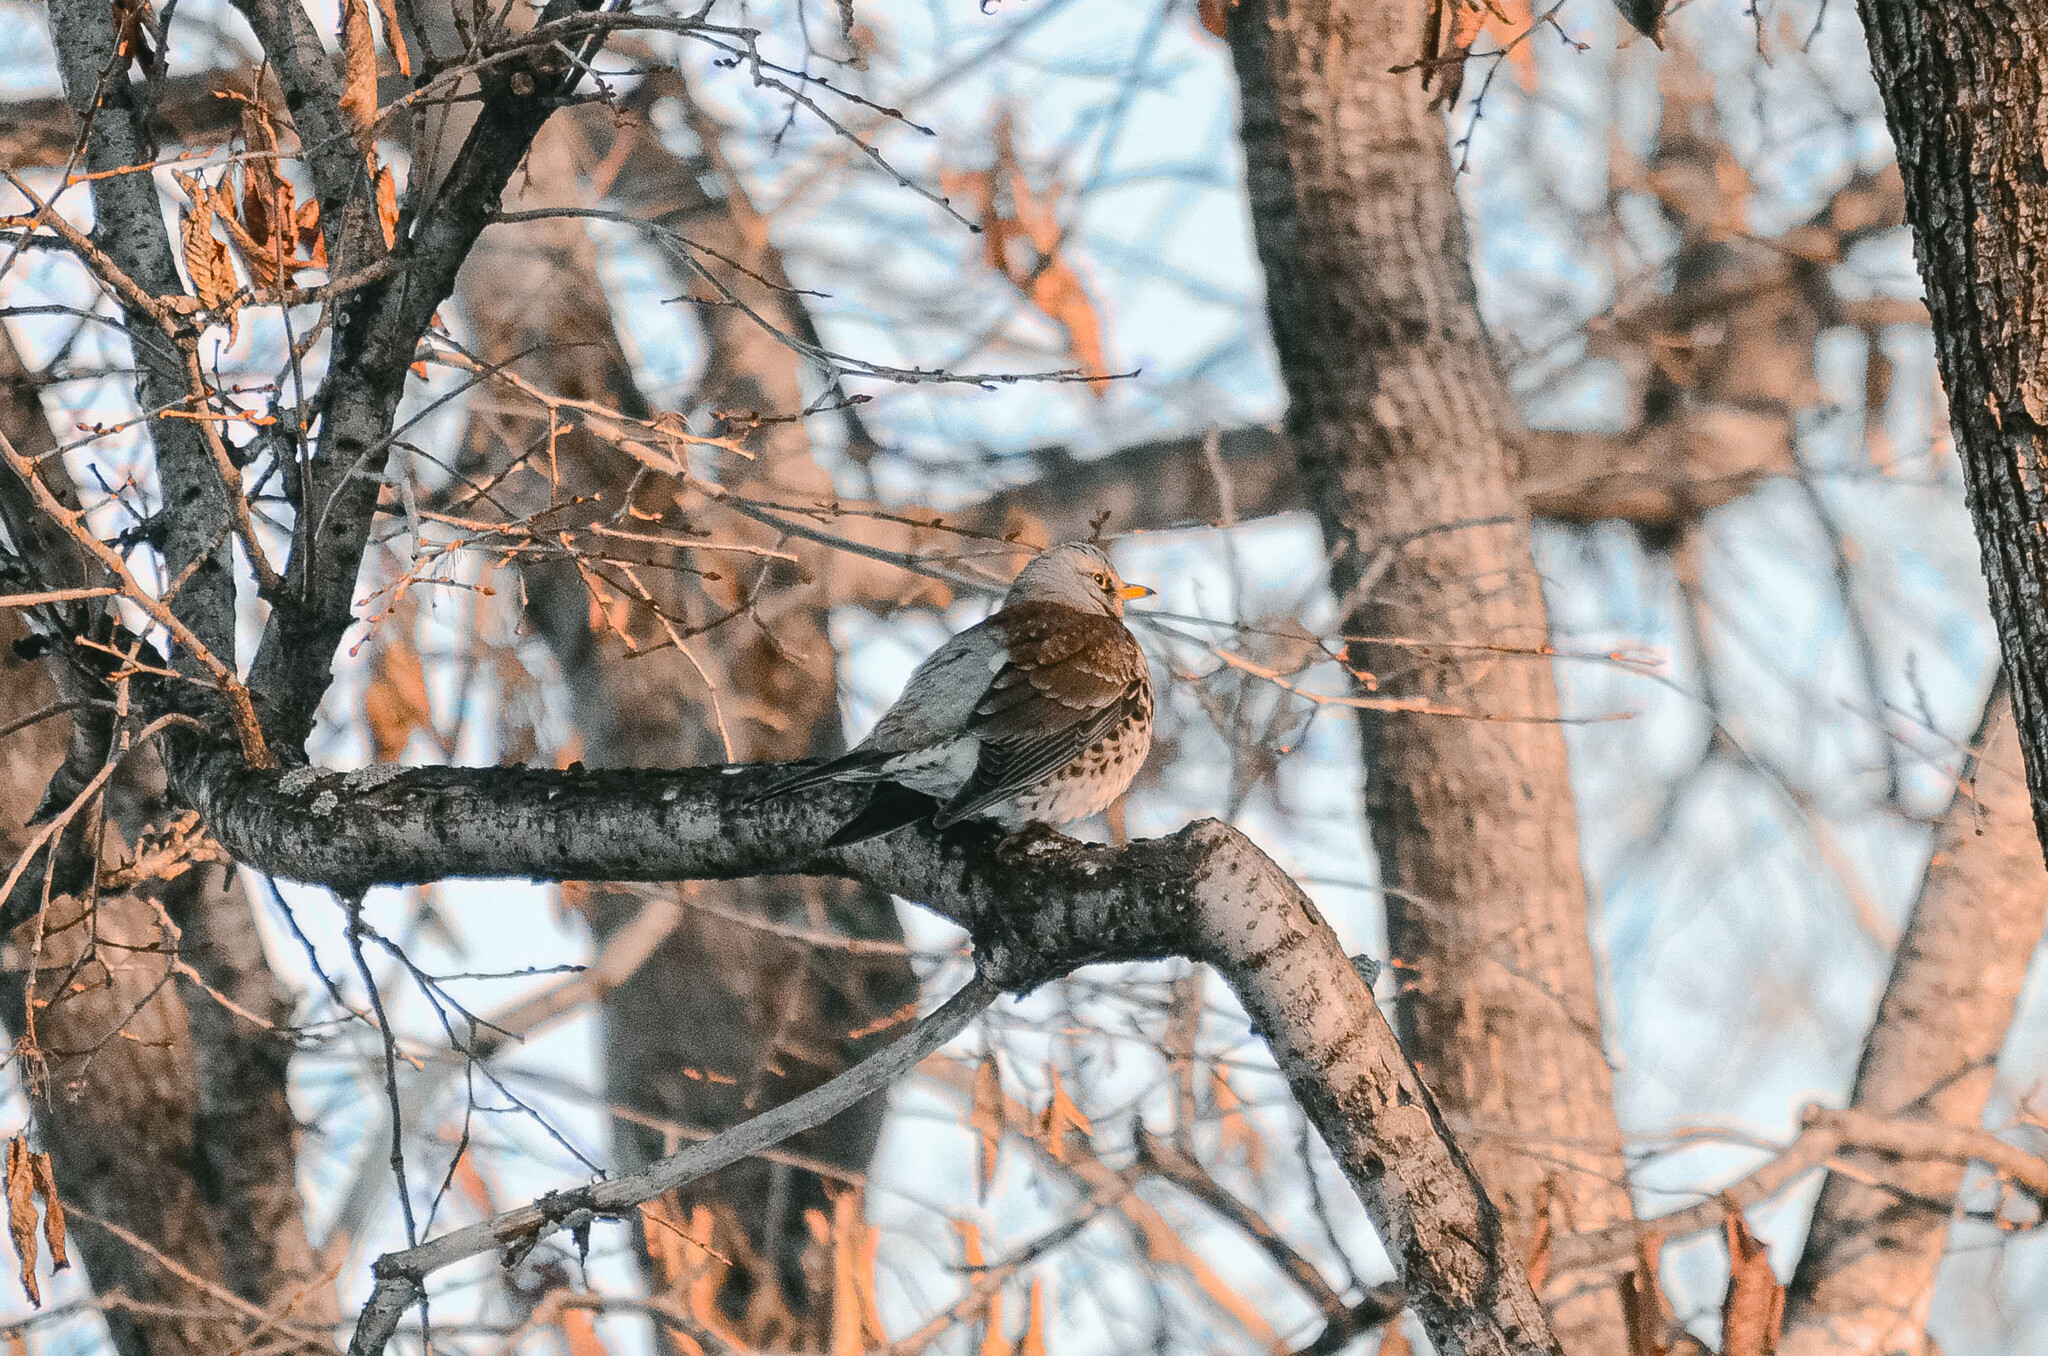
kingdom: Animalia
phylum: Chordata
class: Aves
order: Passeriformes
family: Turdidae
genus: Turdus
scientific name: Turdus pilaris
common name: Fieldfare
